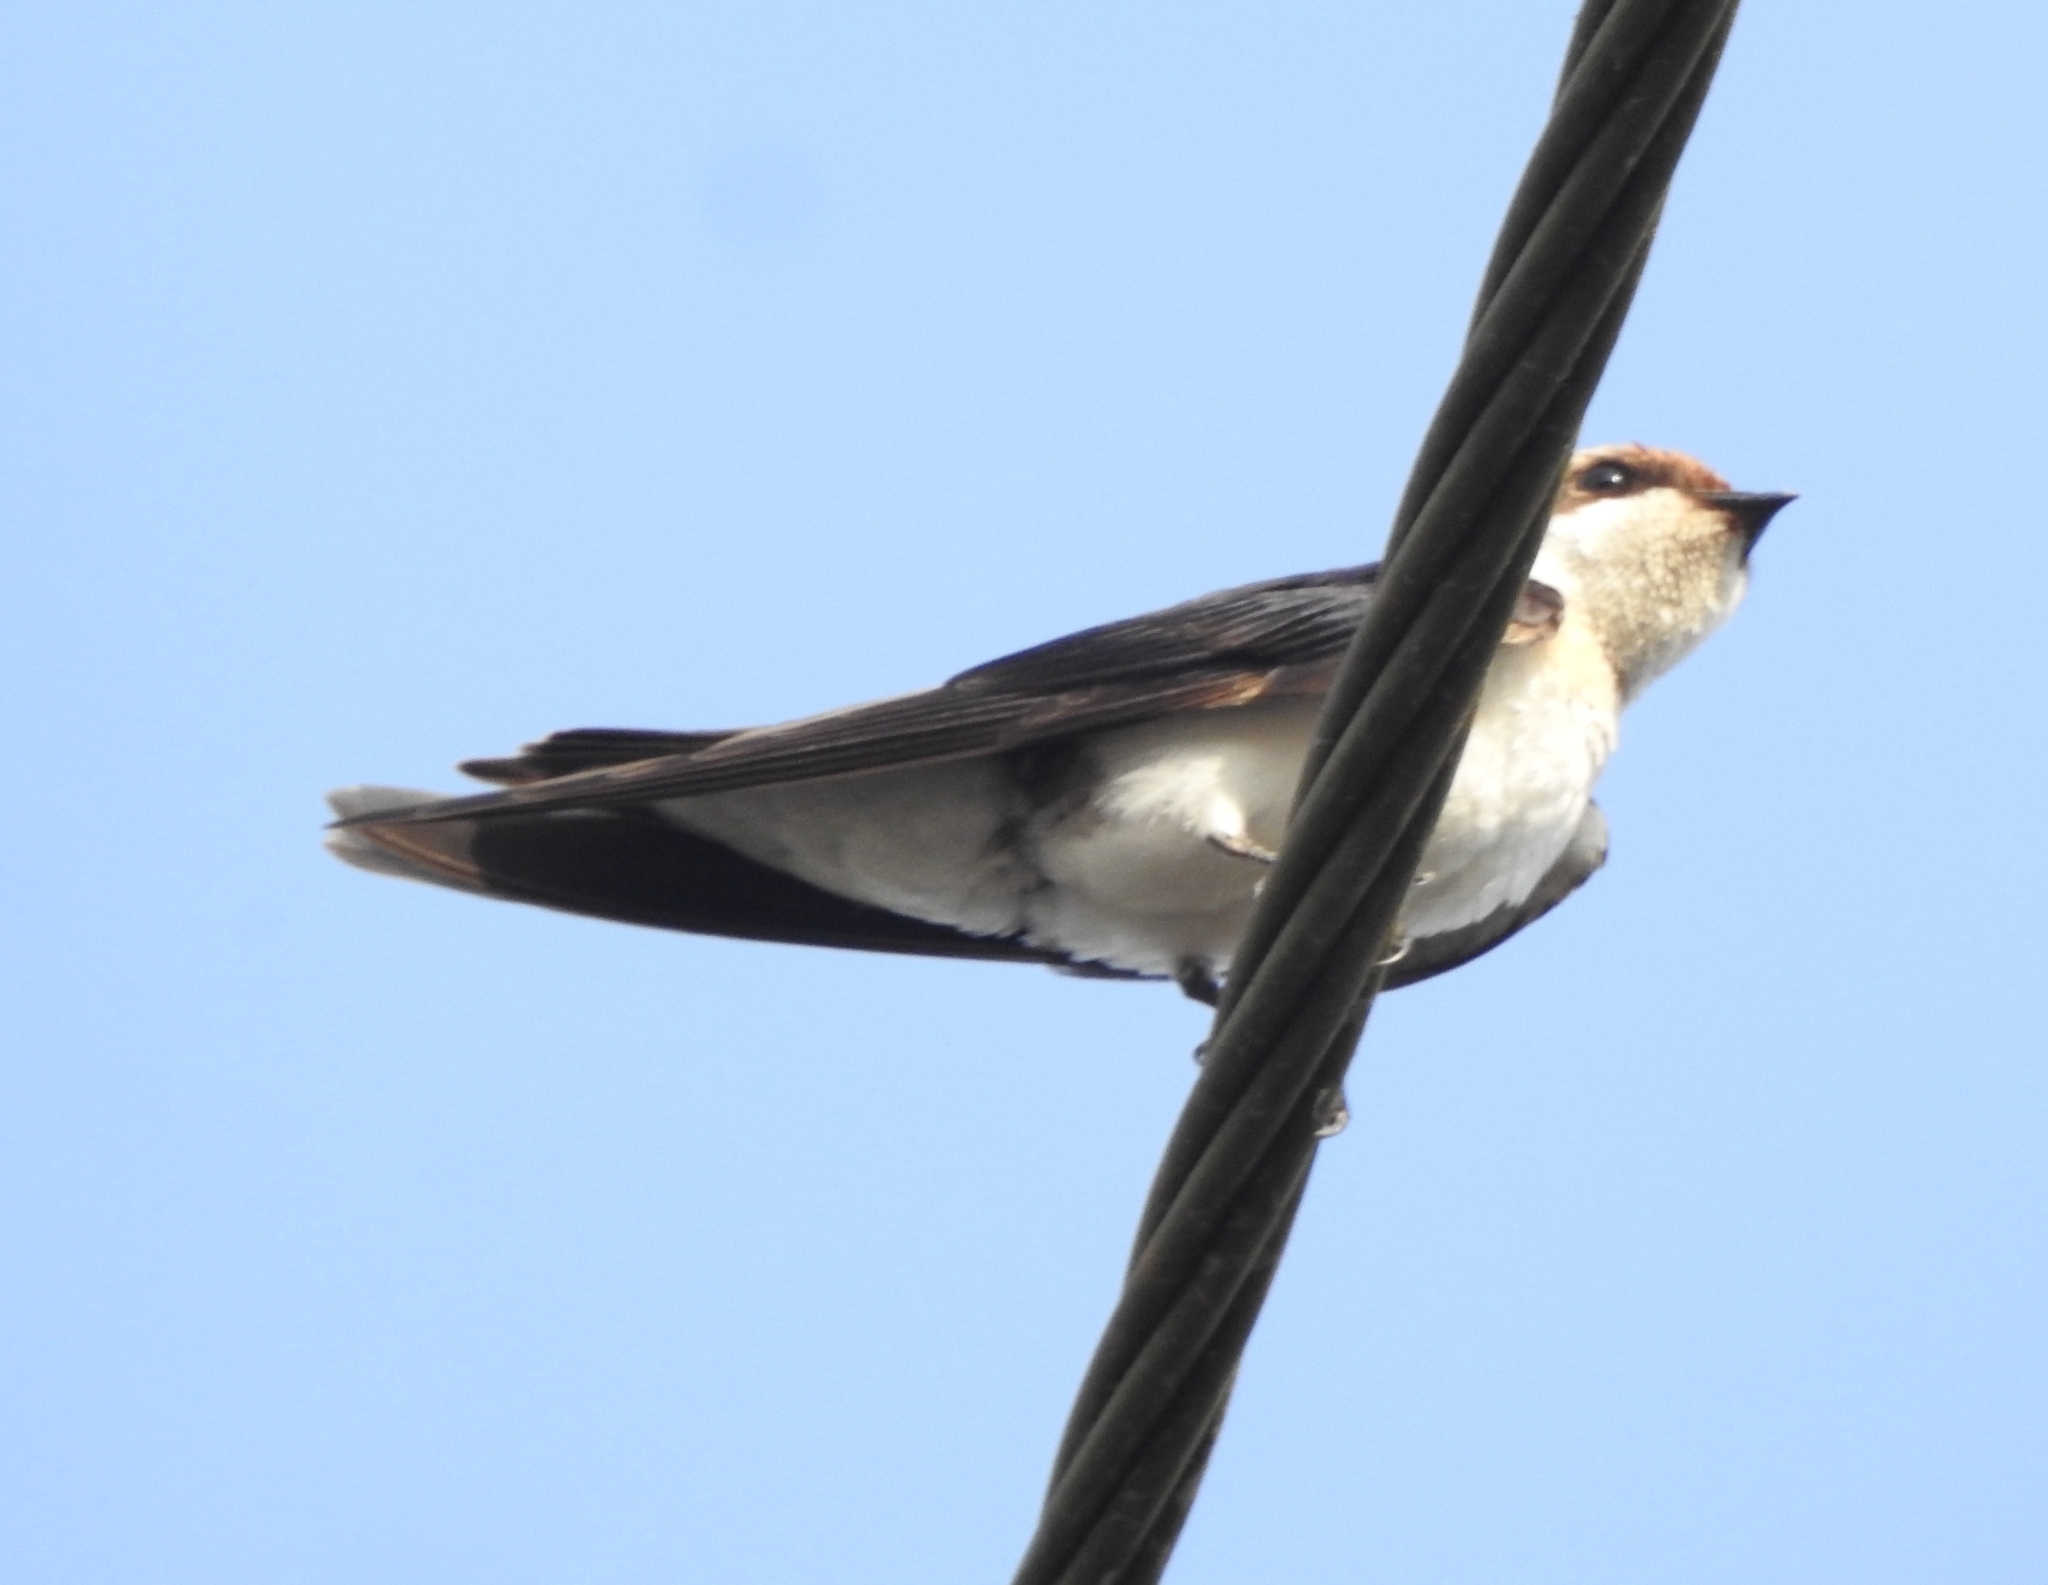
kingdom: Animalia
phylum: Chordata
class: Aves
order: Passeriformes
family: Hirundinidae
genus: Hirundo
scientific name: Hirundo smithii
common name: Wire-tailed swallow
